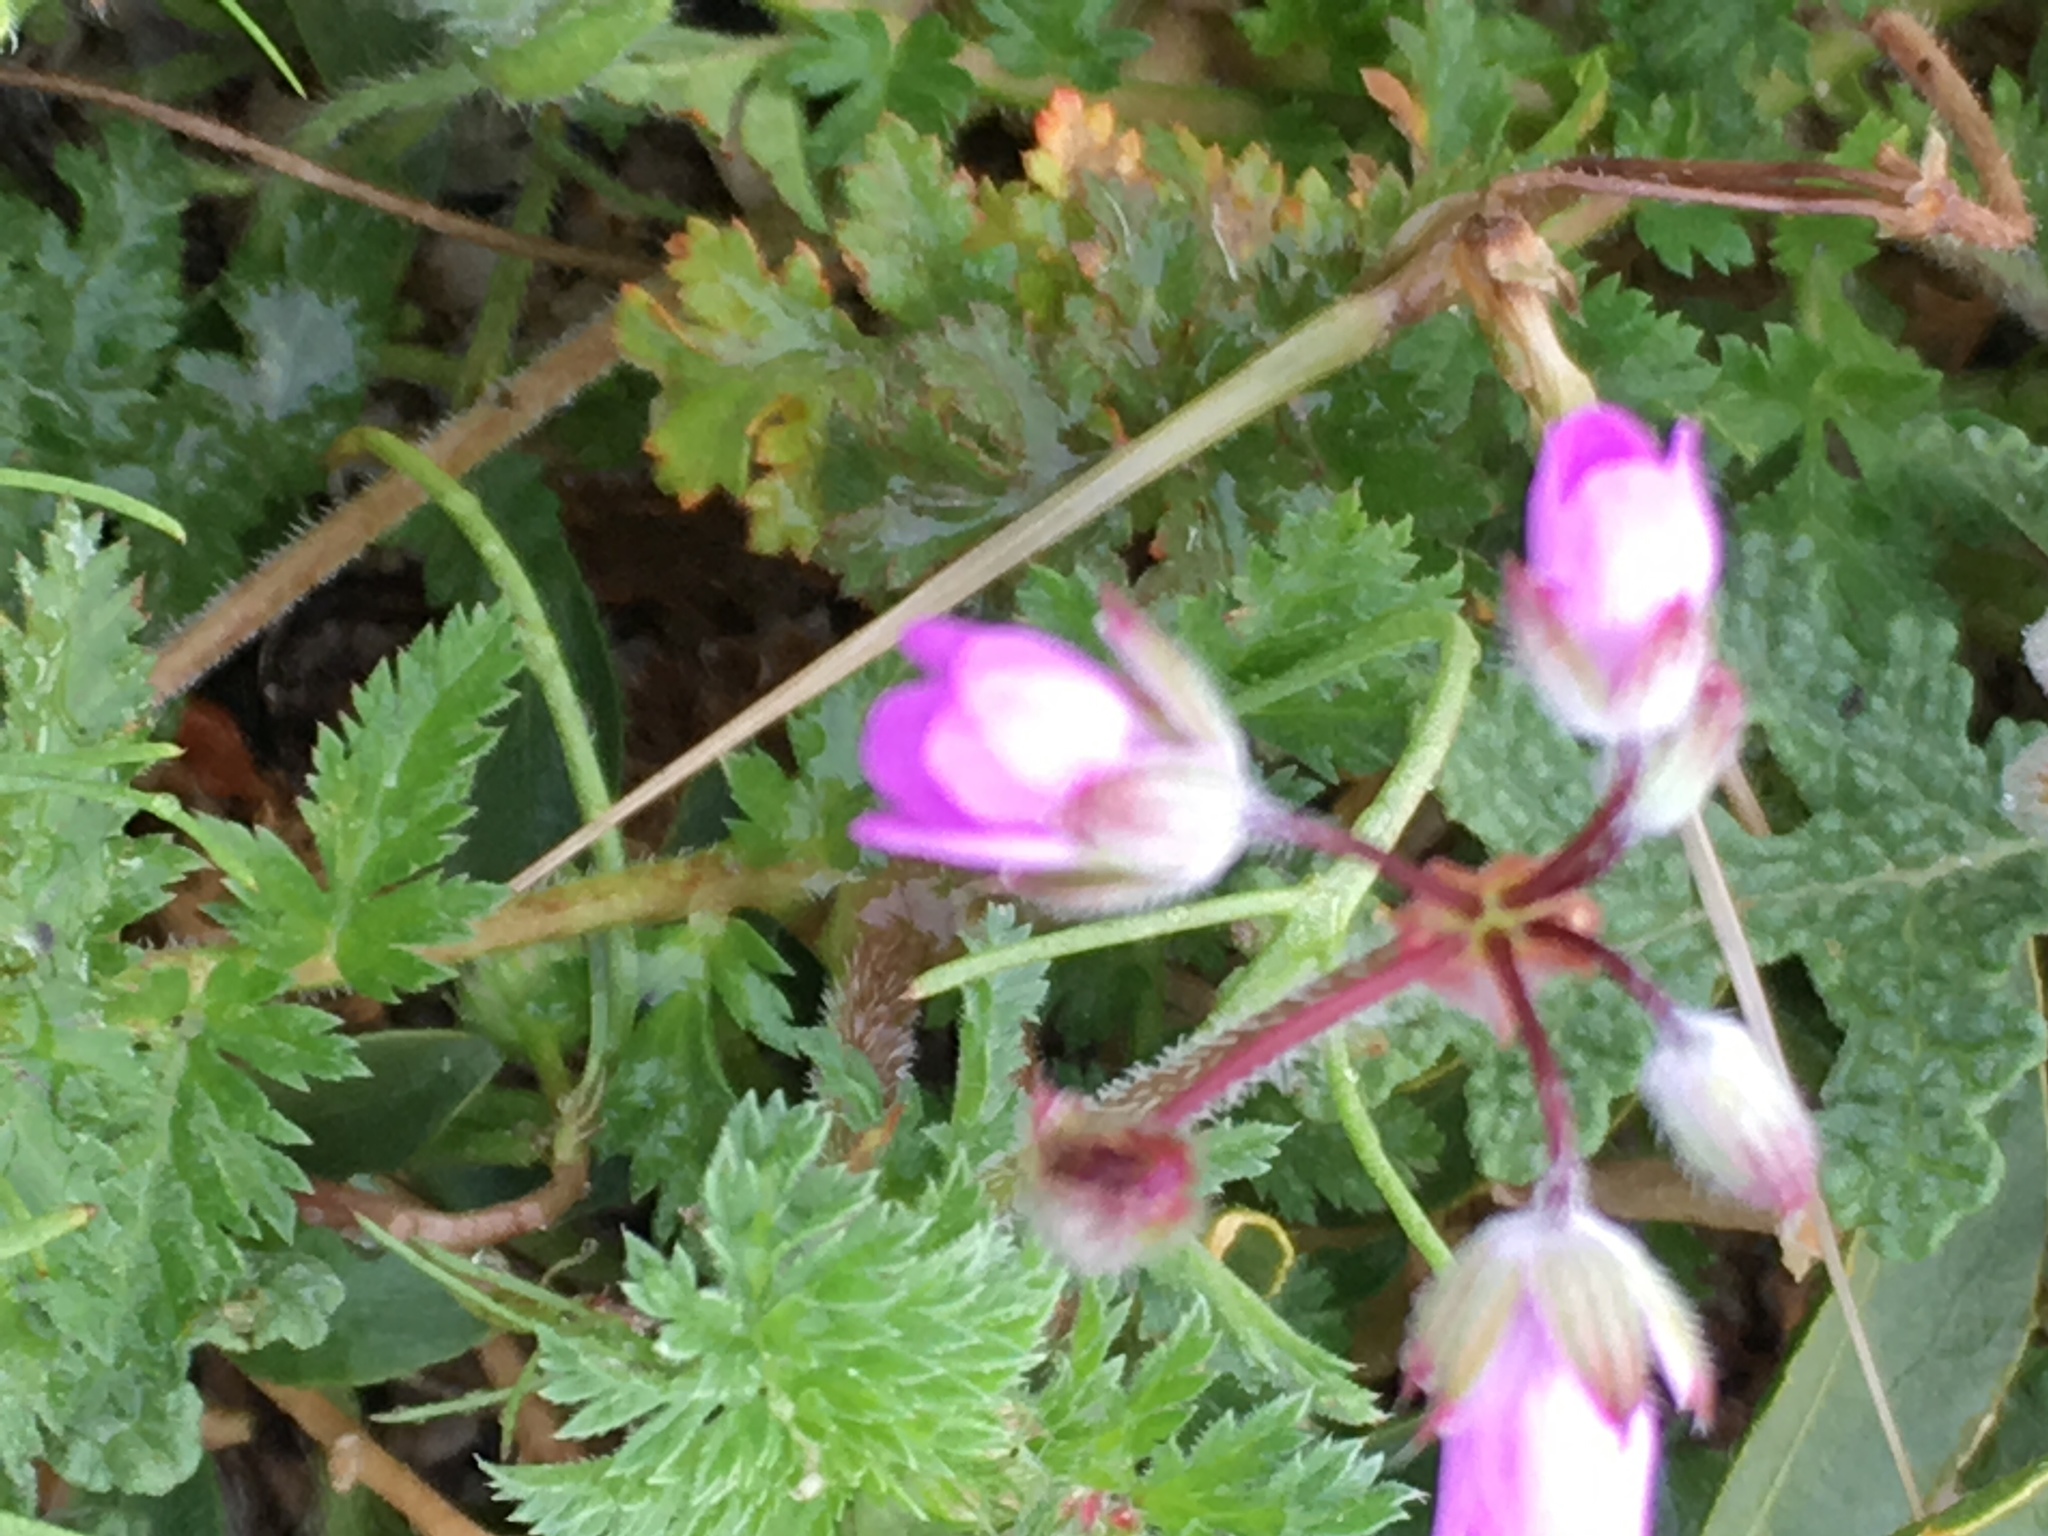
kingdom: Plantae
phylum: Tracheophyta
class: Magnoliopsida
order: Geraniales
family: Geraniaceae
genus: Erodium
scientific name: Erodium cicutarium
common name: Common stork's-bill
